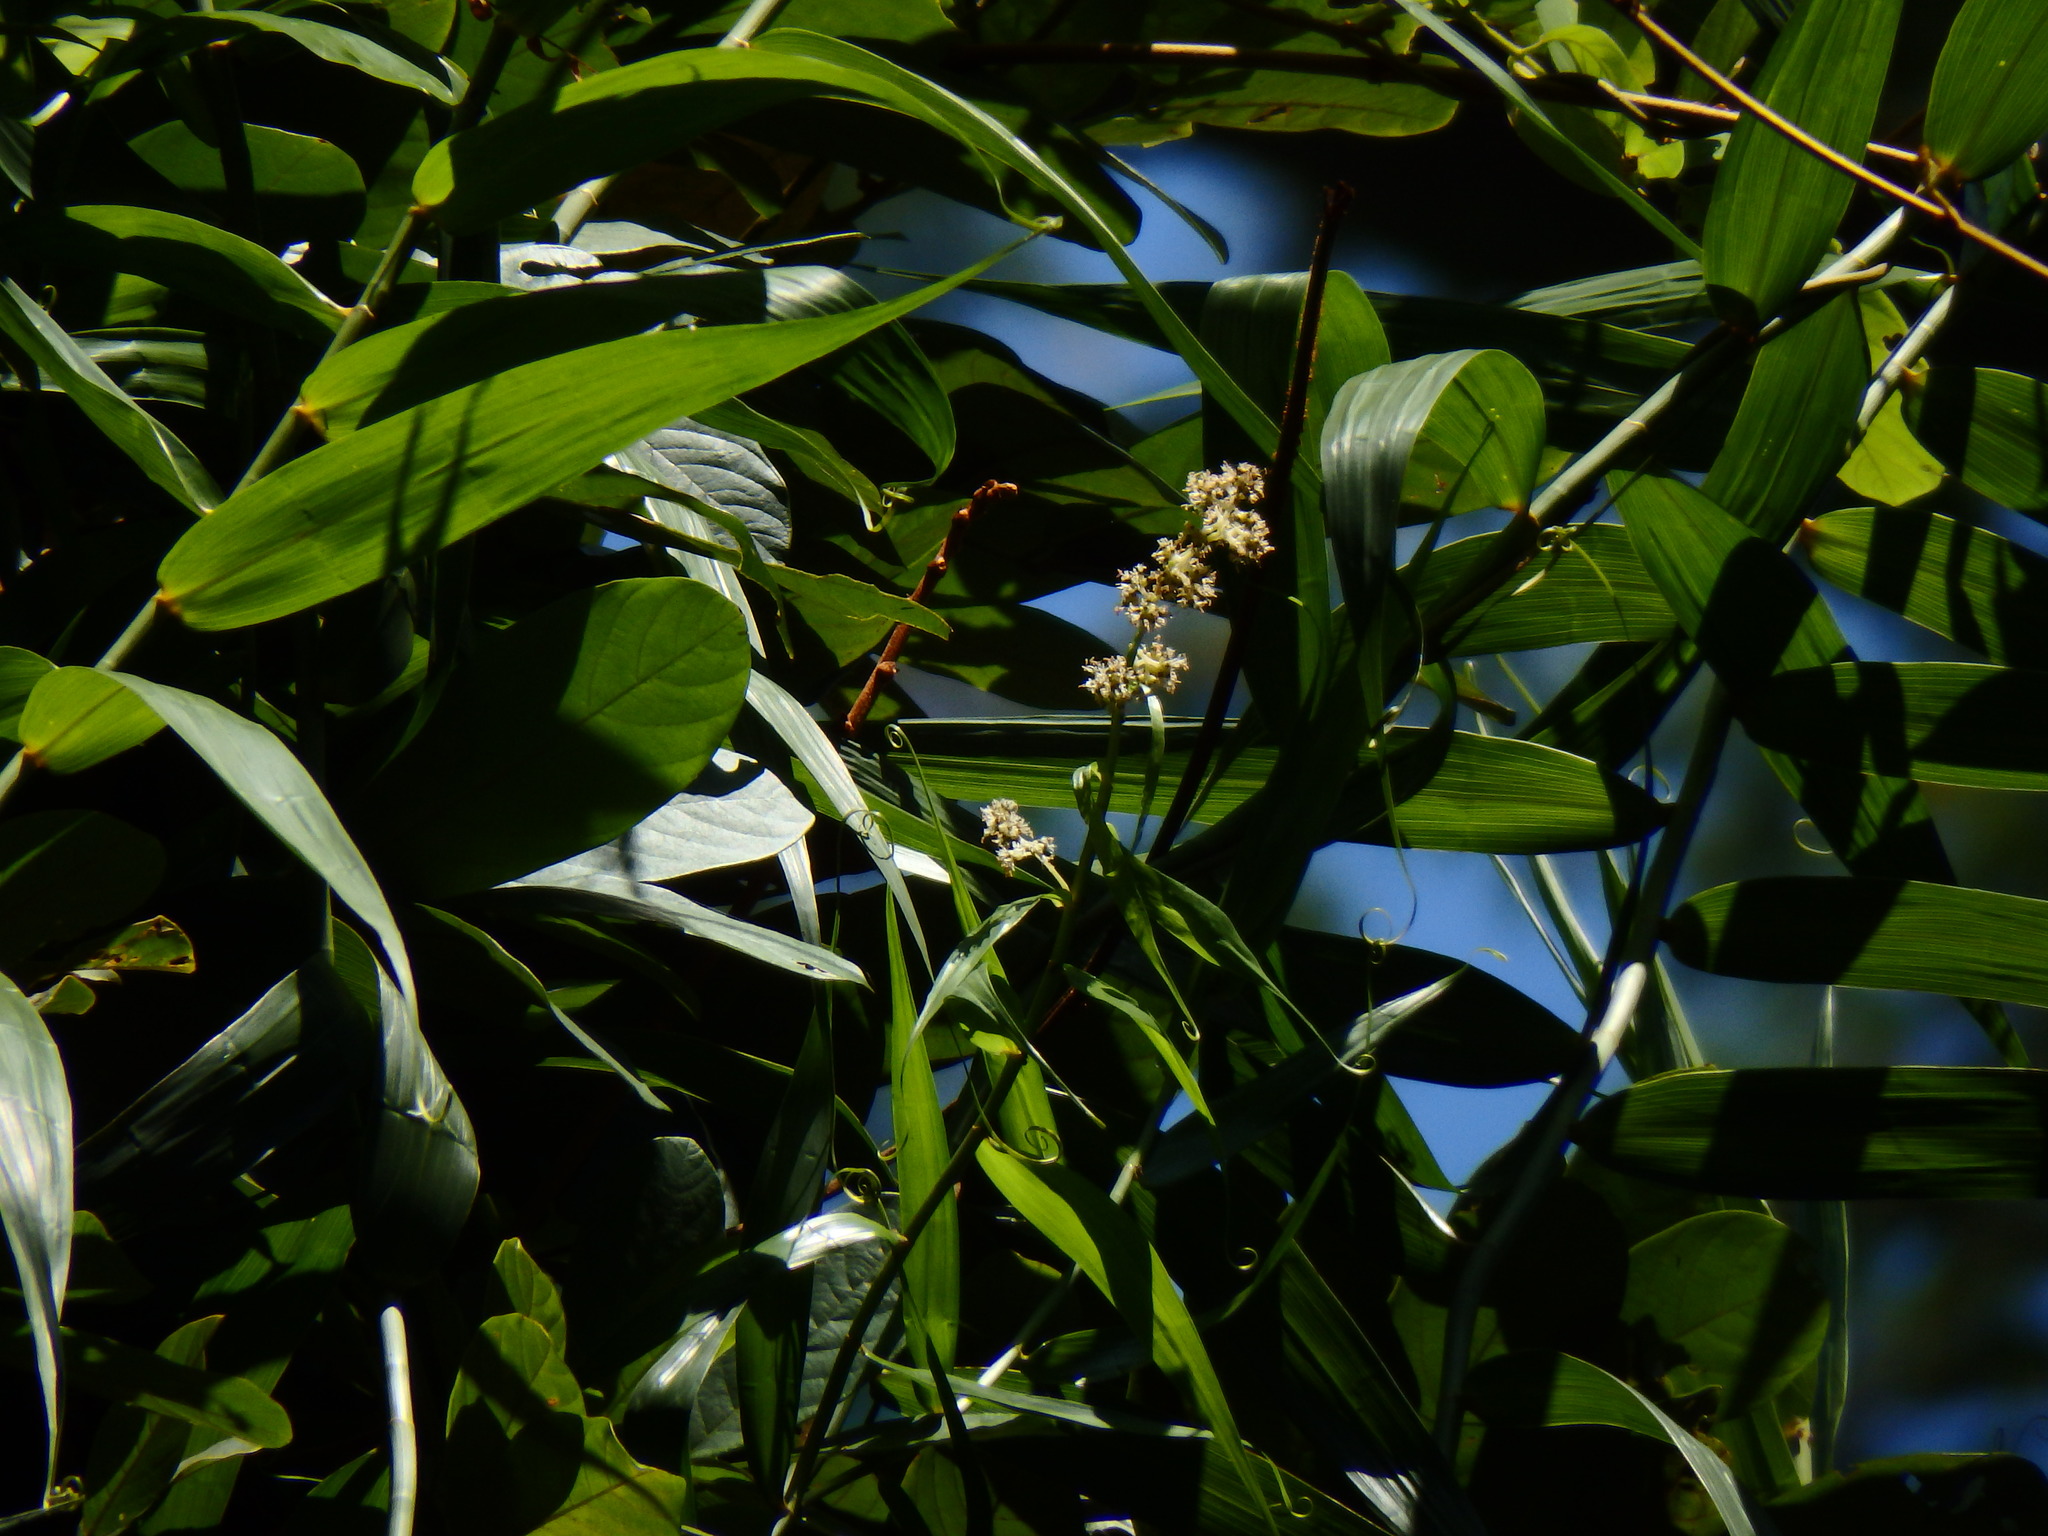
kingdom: Plantae
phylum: Tracheophyta
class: Liliopsida
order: Poales
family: Flagellariaceae
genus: Flagellaria
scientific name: Flagellaria indica
